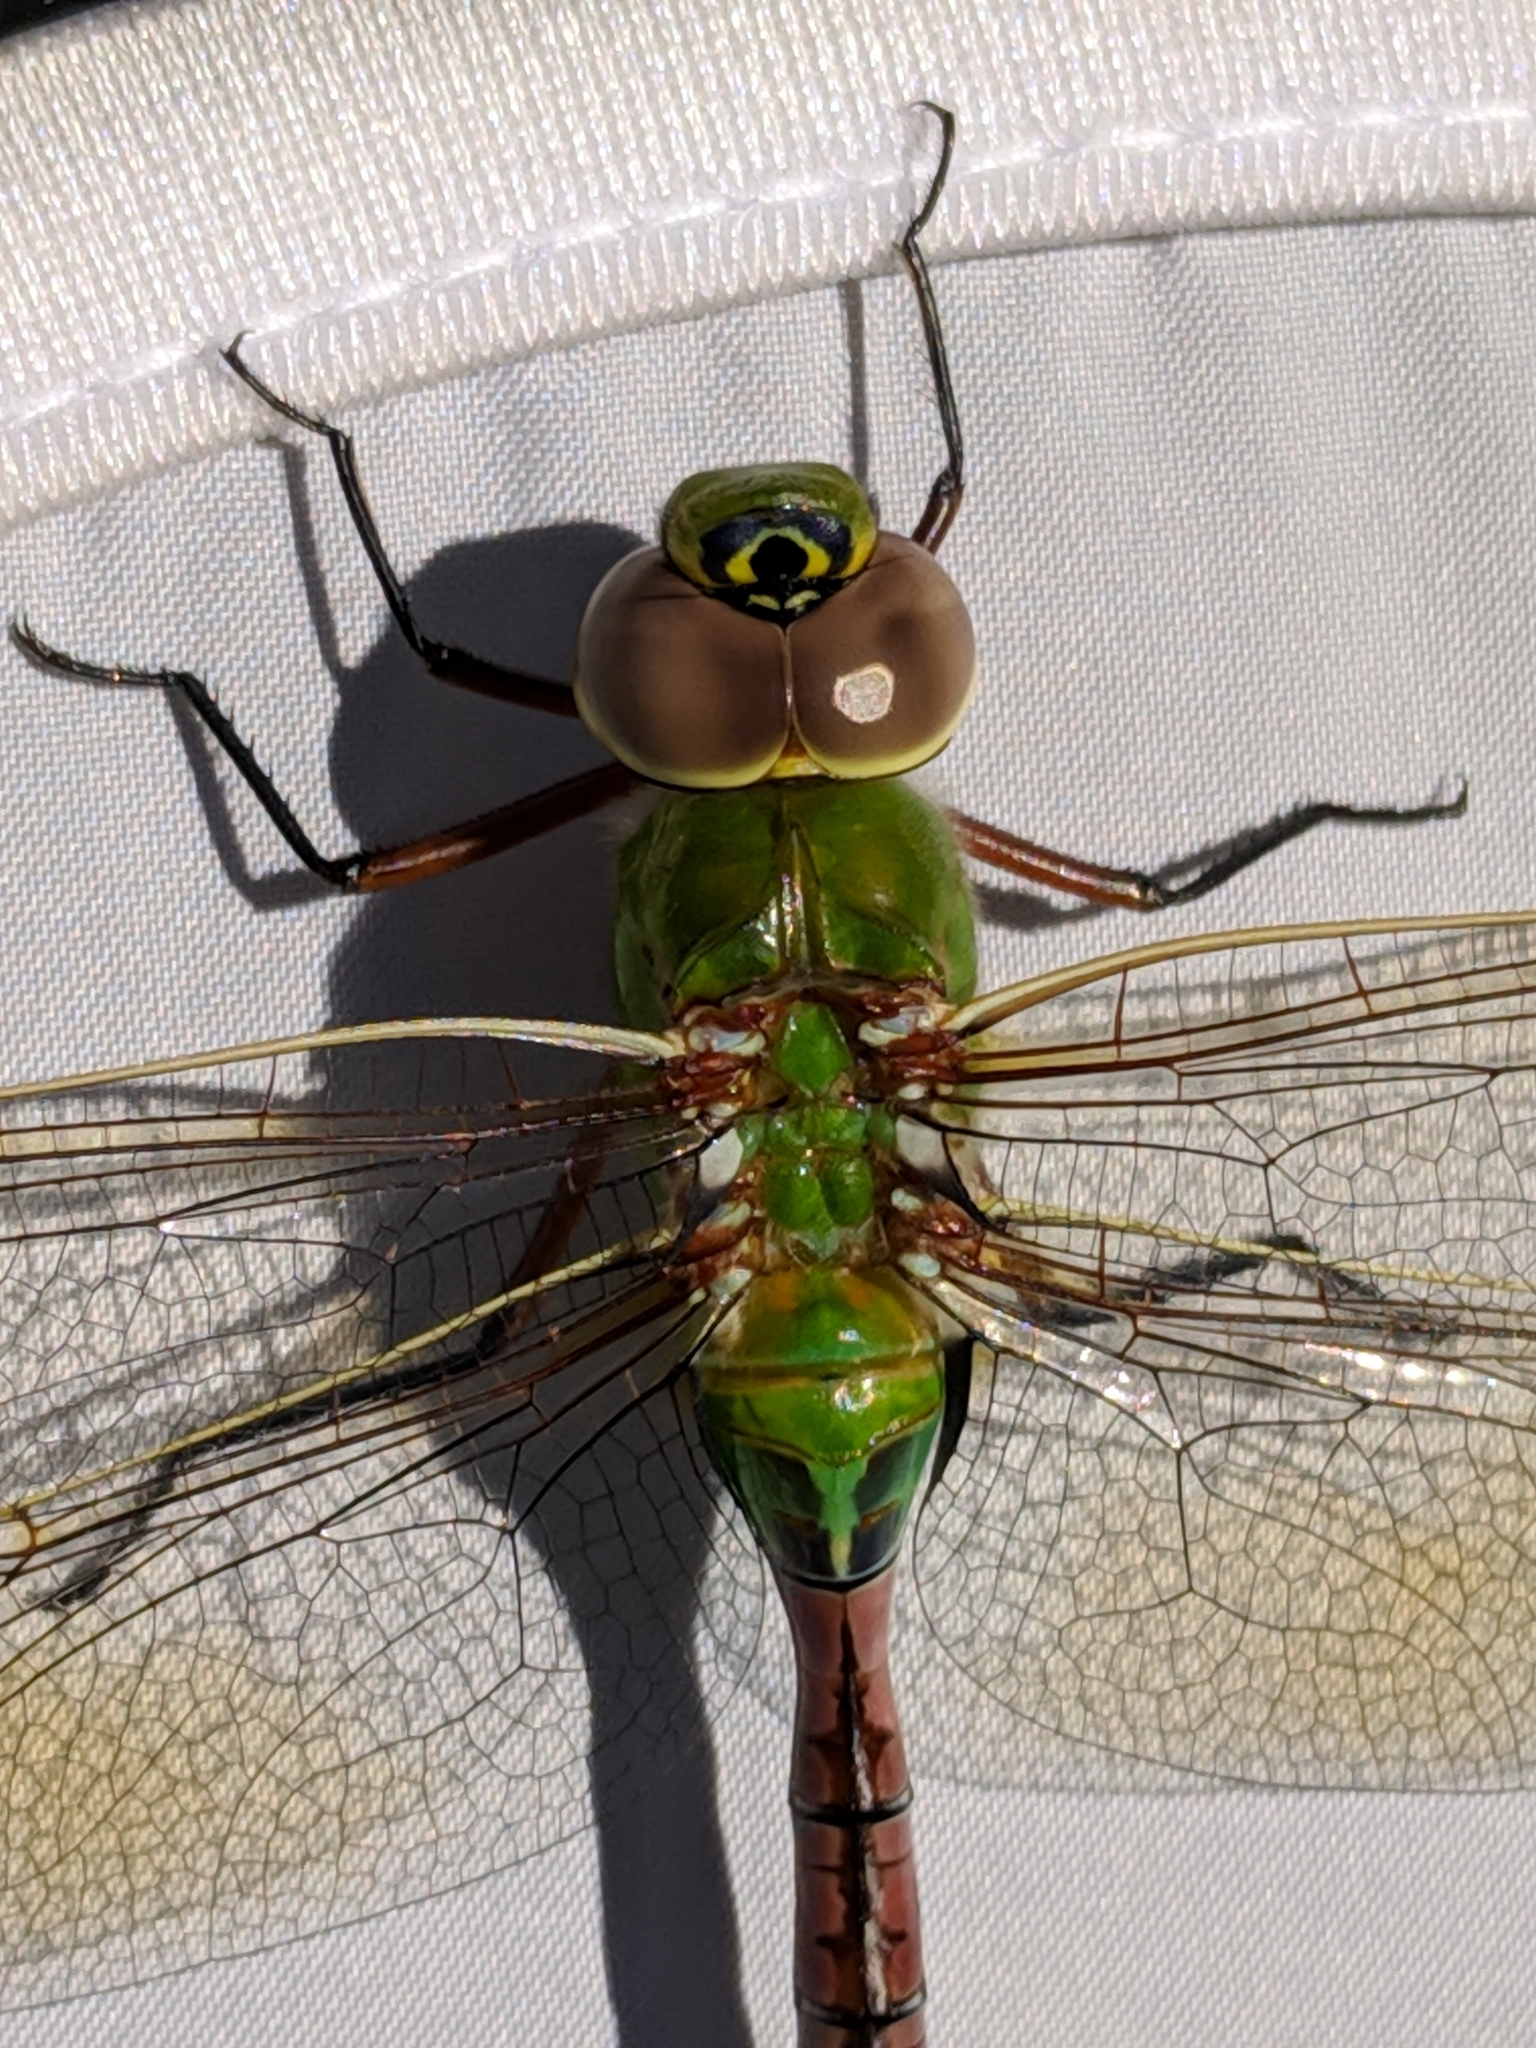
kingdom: Animalia
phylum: Arthropoda
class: Insecta
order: Odonata
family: Aeshnidae
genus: Anax
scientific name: Anax junius
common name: Common green darner
